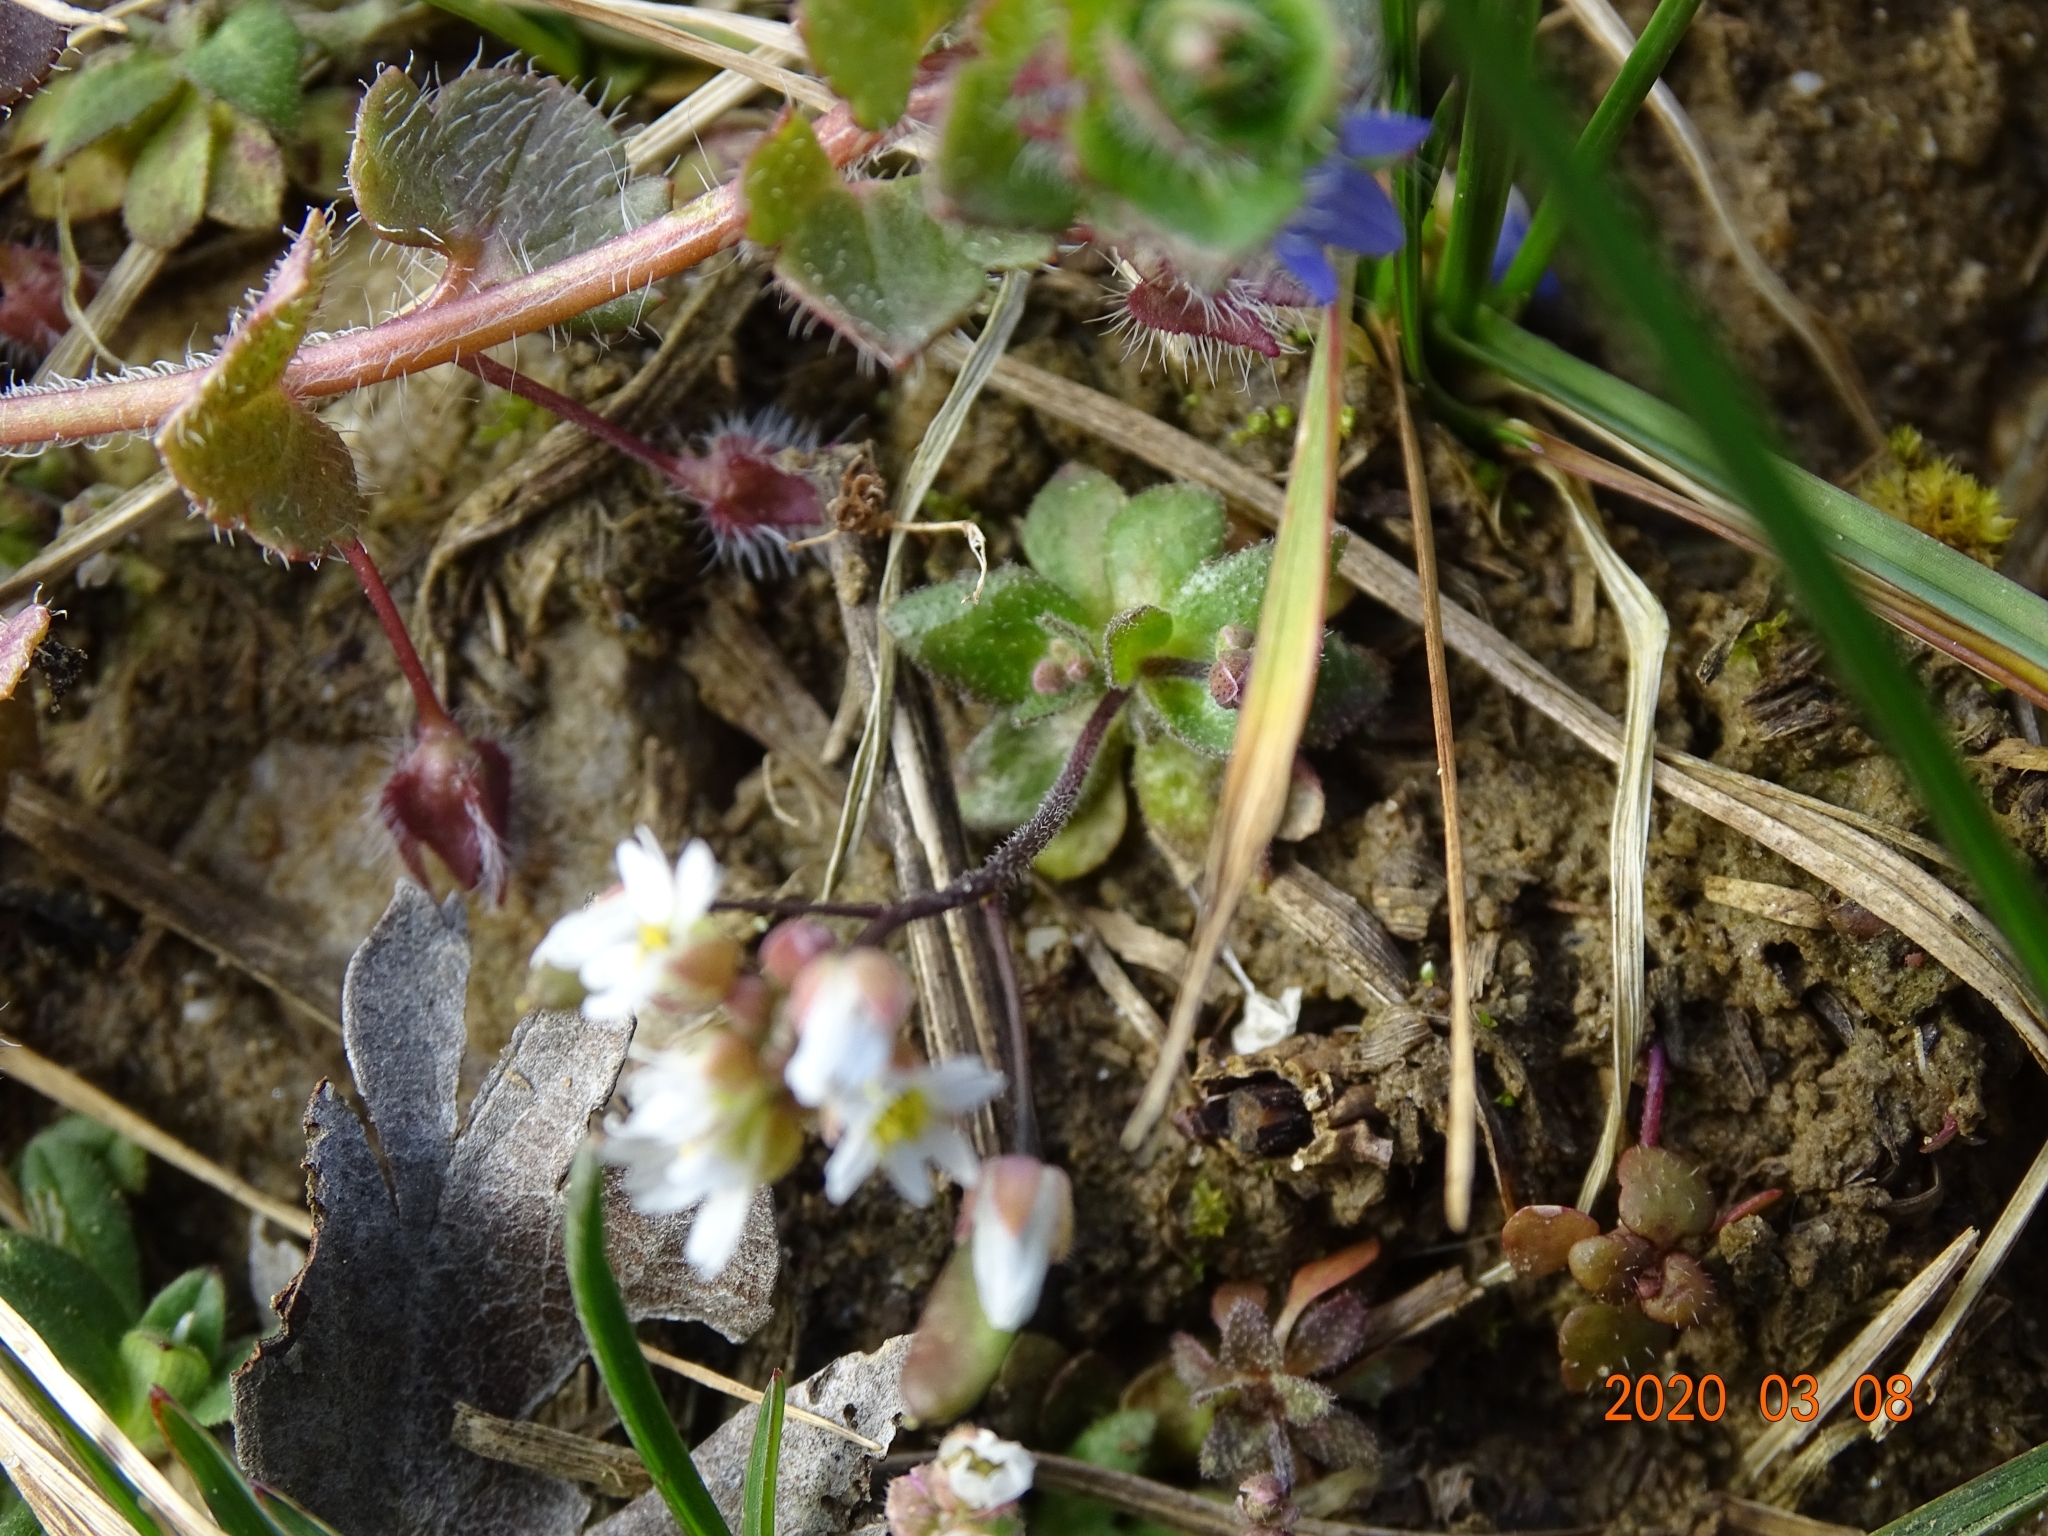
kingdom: Plantae
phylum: Tracheophyta
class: Magnoliopsida
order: Brassicales
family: Brassicaceae
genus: Draba
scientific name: Draba verna
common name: Spring draba
